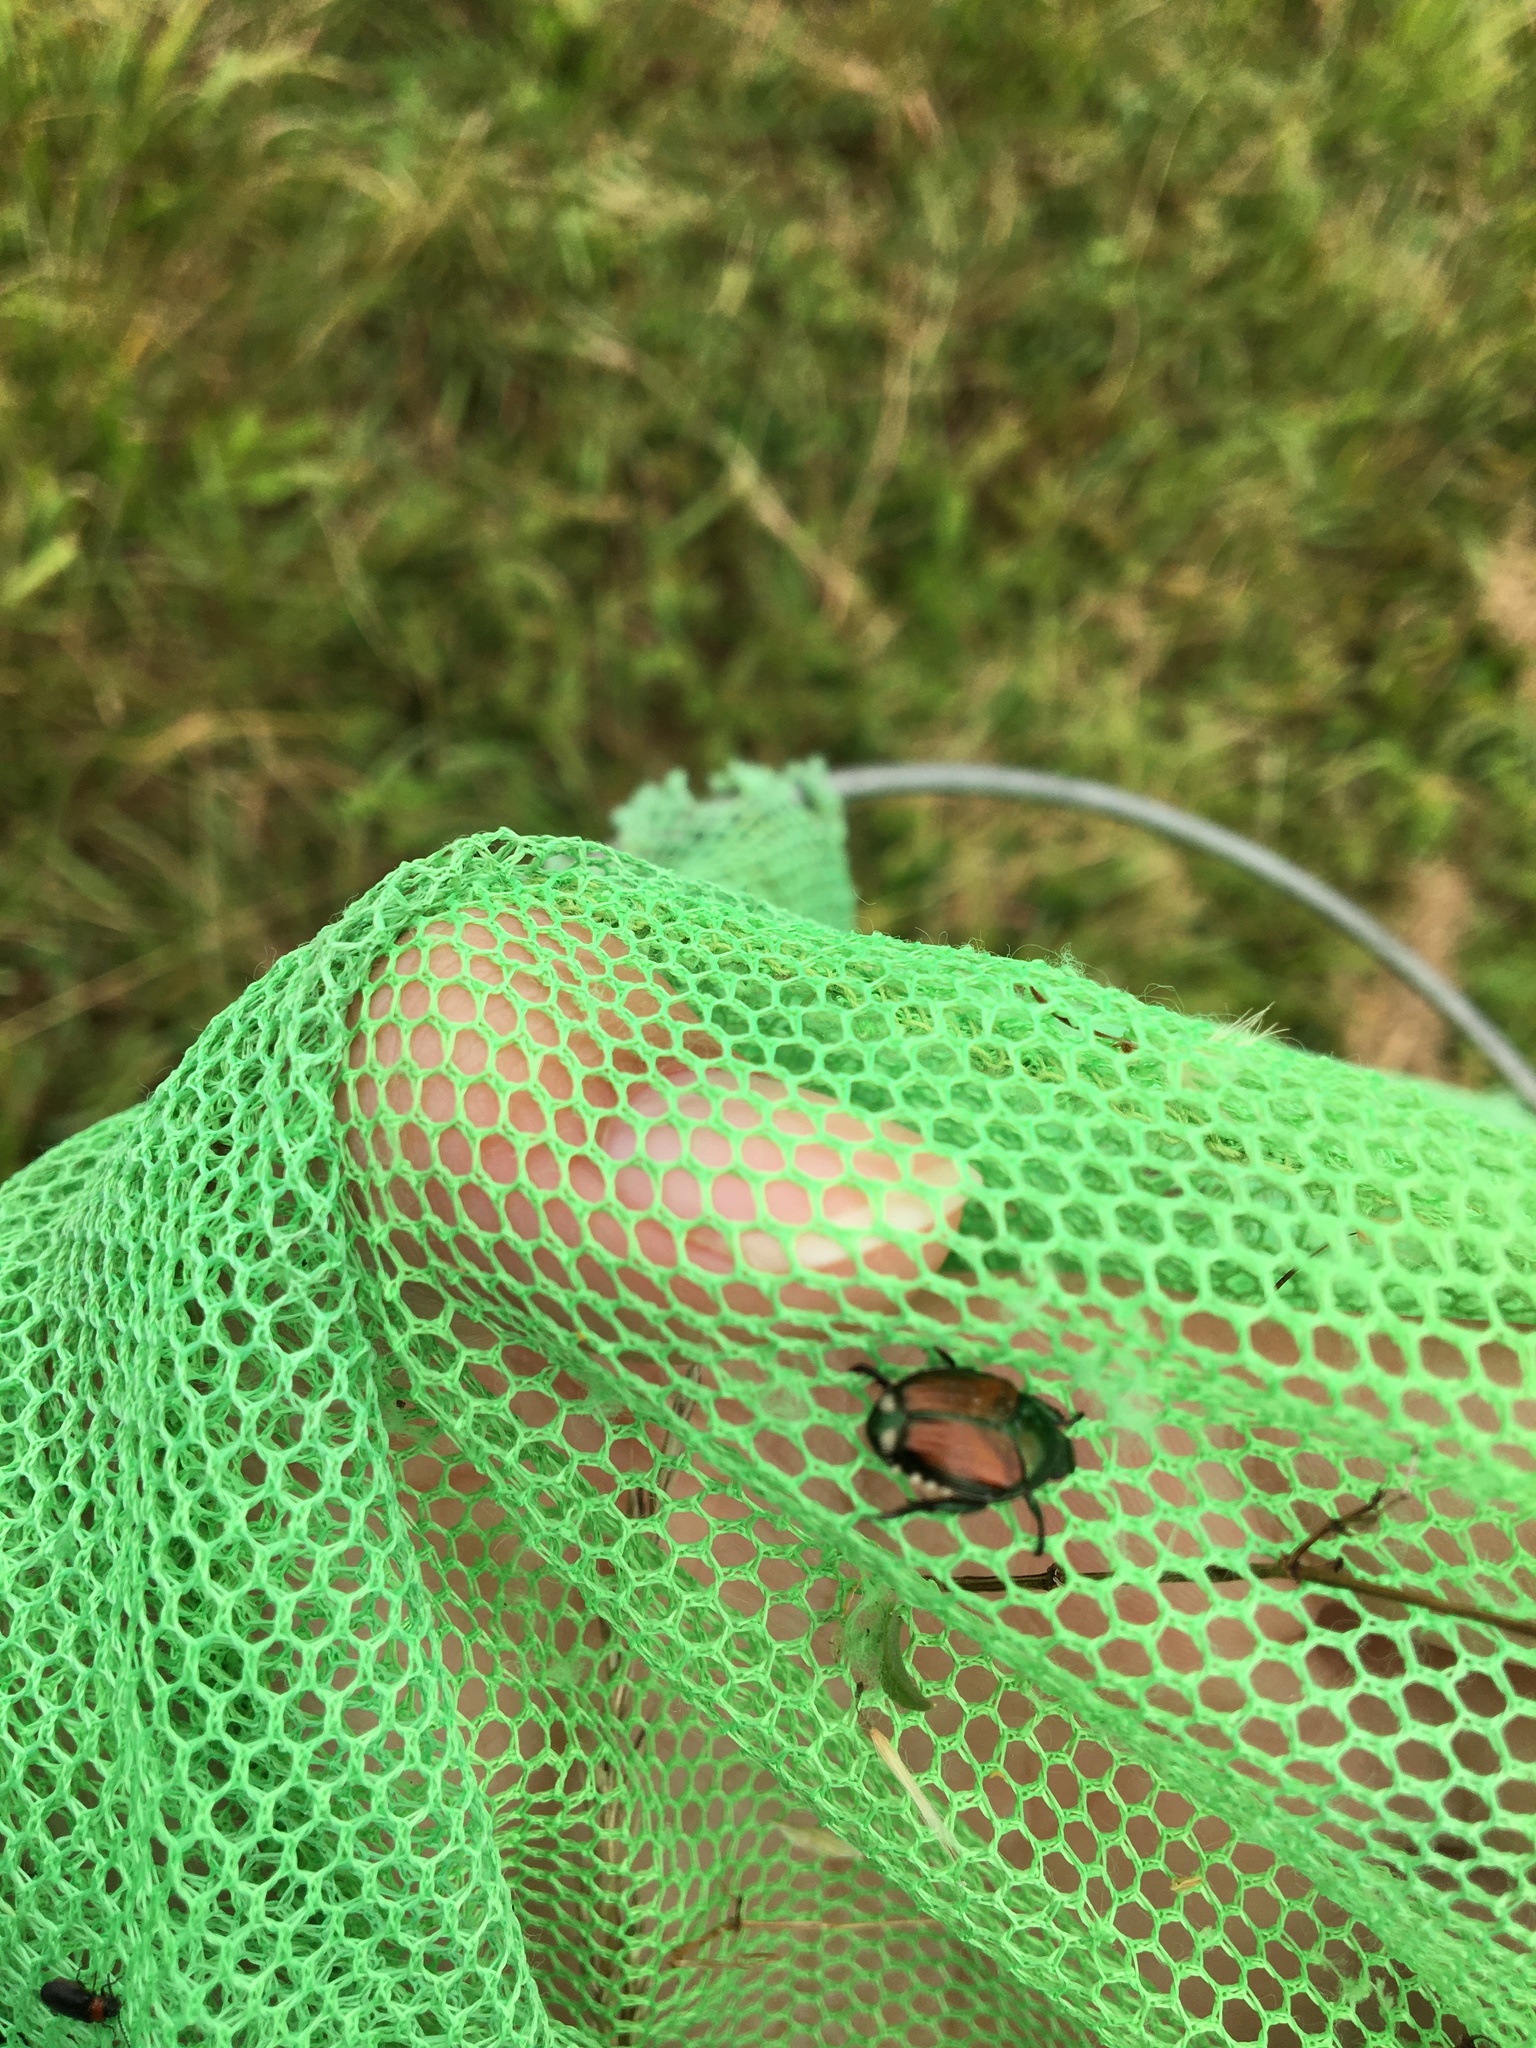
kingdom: Animalia
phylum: Arthropoda
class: Insecta
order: Coleoptera
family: Scarabaeidae
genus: Popillia
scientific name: Popillia japonica
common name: Japanese beetle
